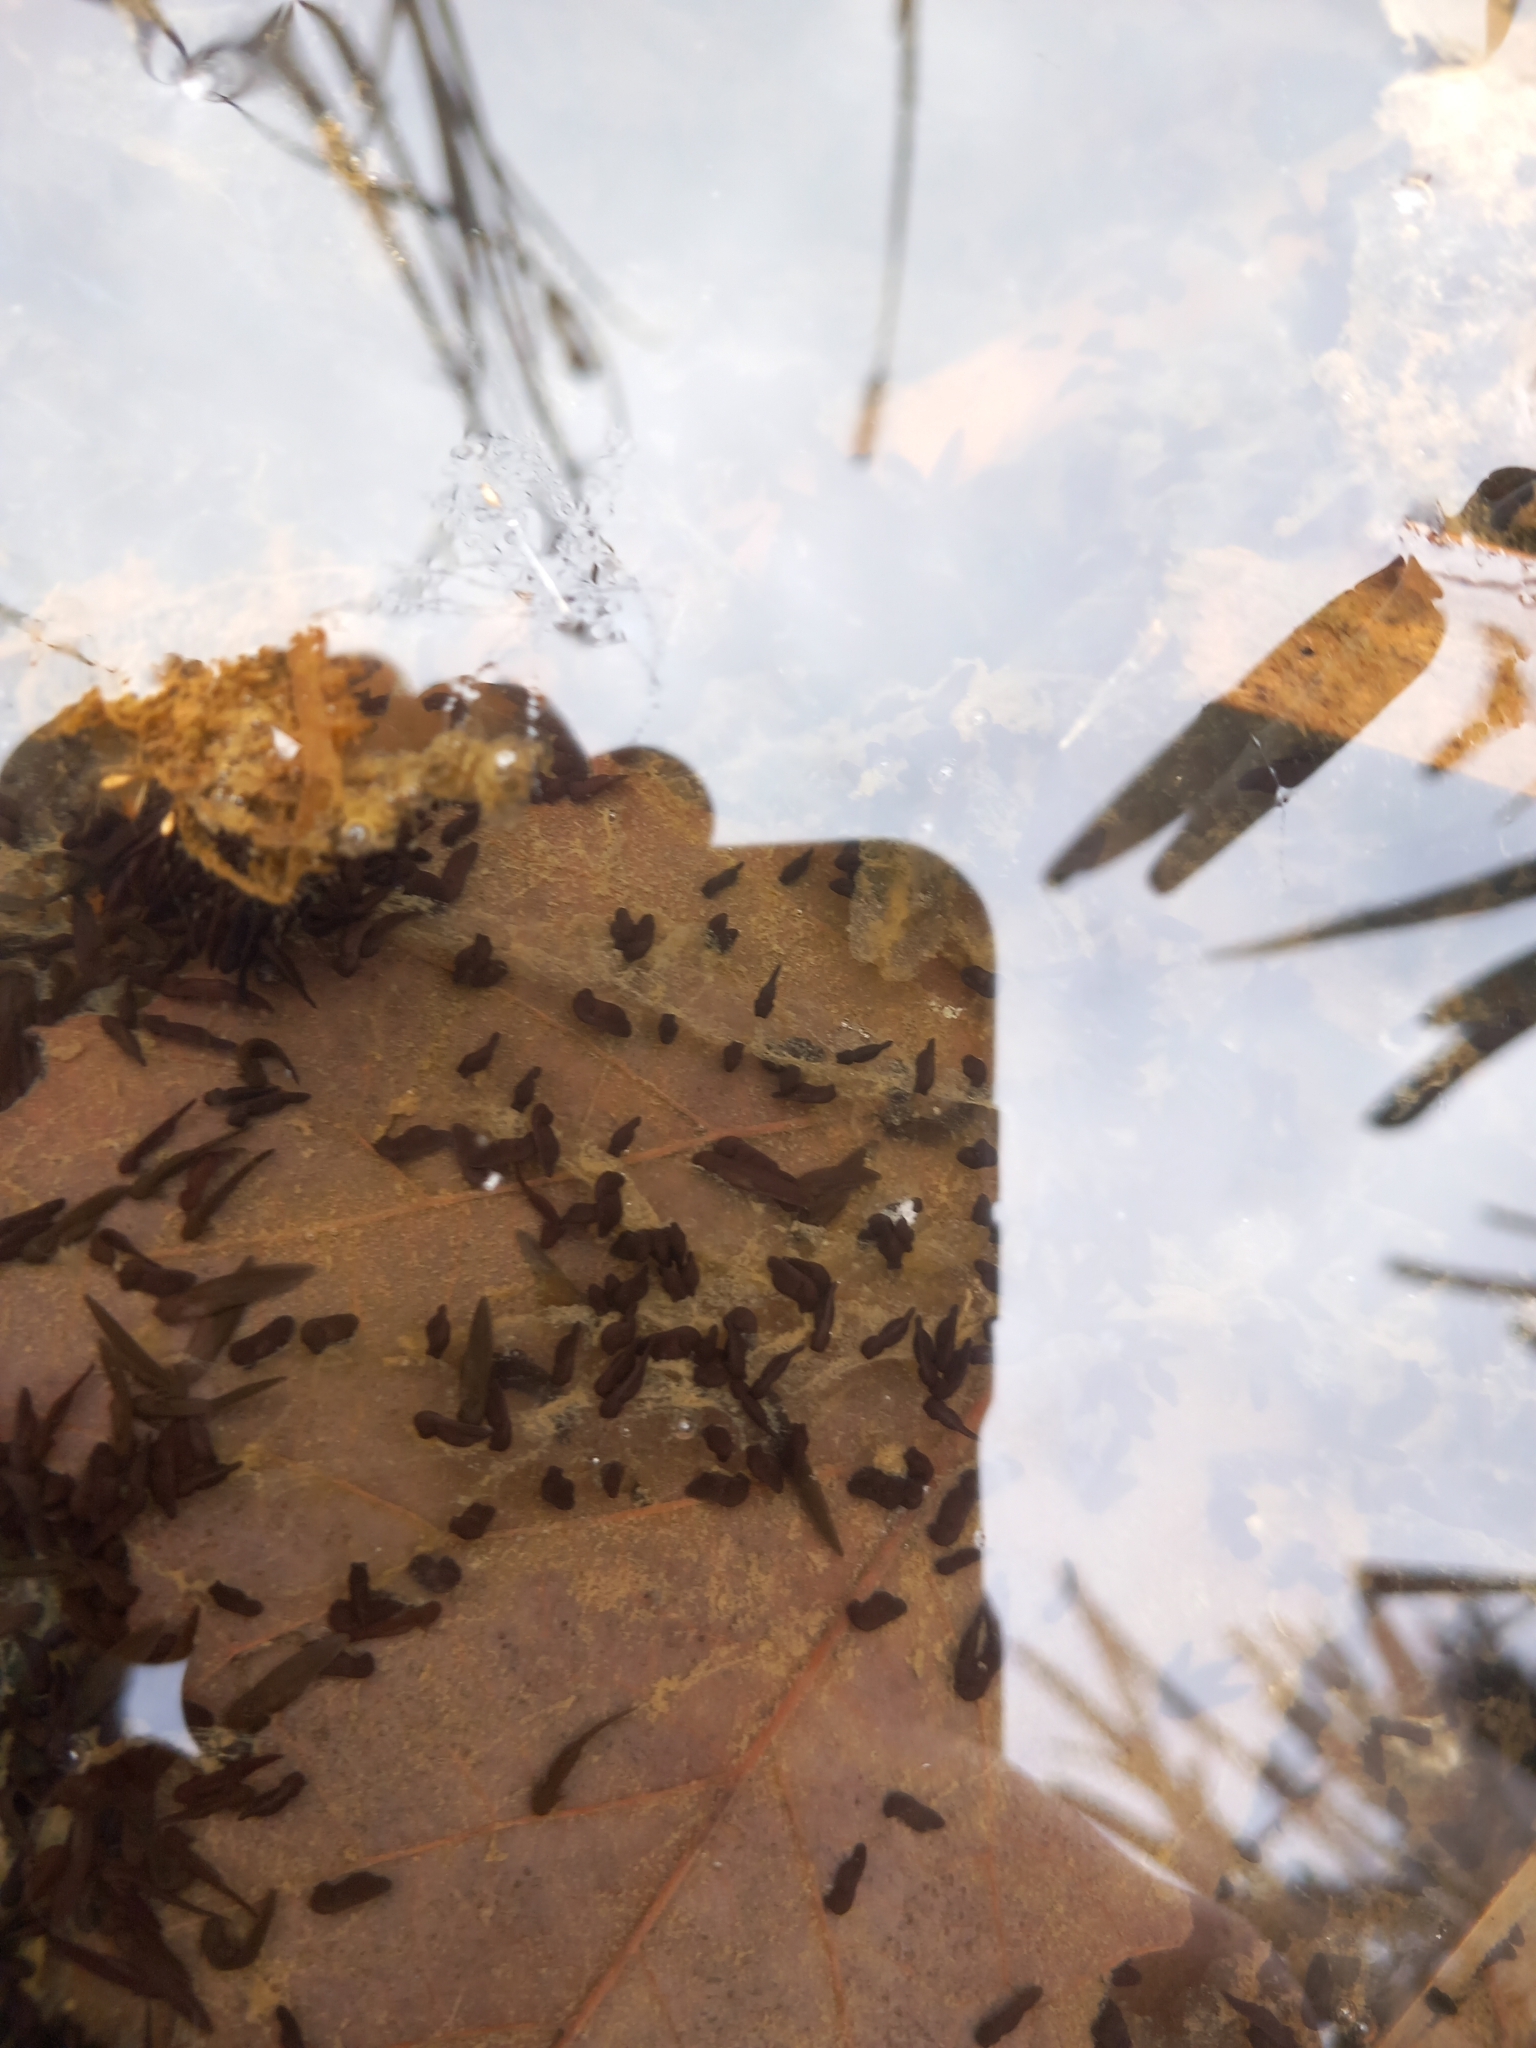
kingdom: Animalia
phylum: Chordata
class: Amphibia
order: Anura
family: Bufonidae
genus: Bufo
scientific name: Bufo bufo
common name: Common toad
